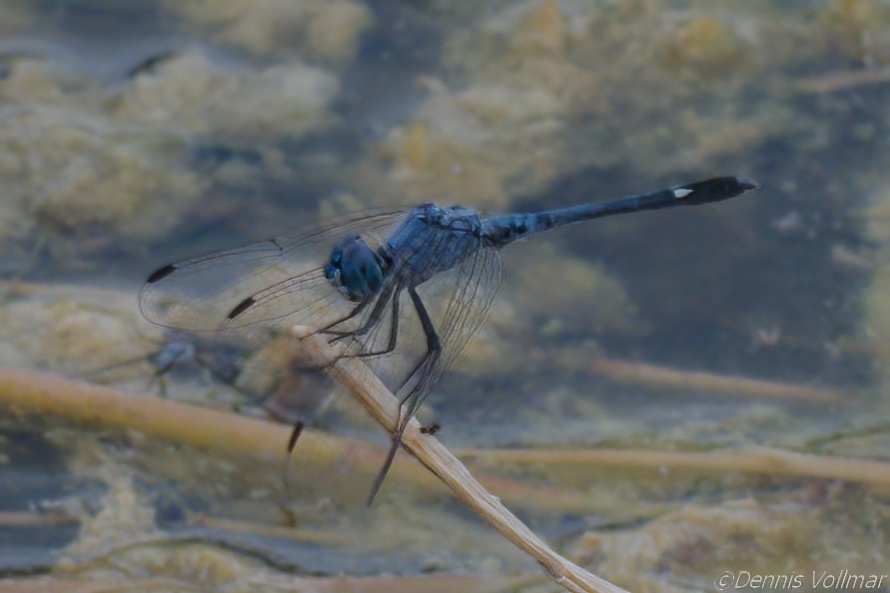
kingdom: Animalia
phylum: Arthropoda
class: Insecta
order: Odonata
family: Libellulidae
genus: Micrathyria
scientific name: Micrathyria aequalis
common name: Spot-tailed dasher
